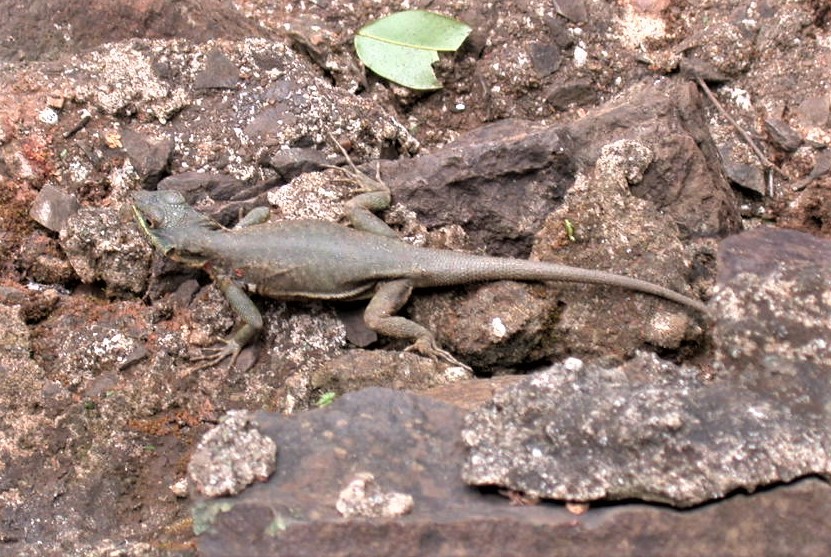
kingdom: Animalia
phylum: Chordata
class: Squamata
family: Tropiduridae
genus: Tropidurus
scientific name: Tropidurus catalanensis
